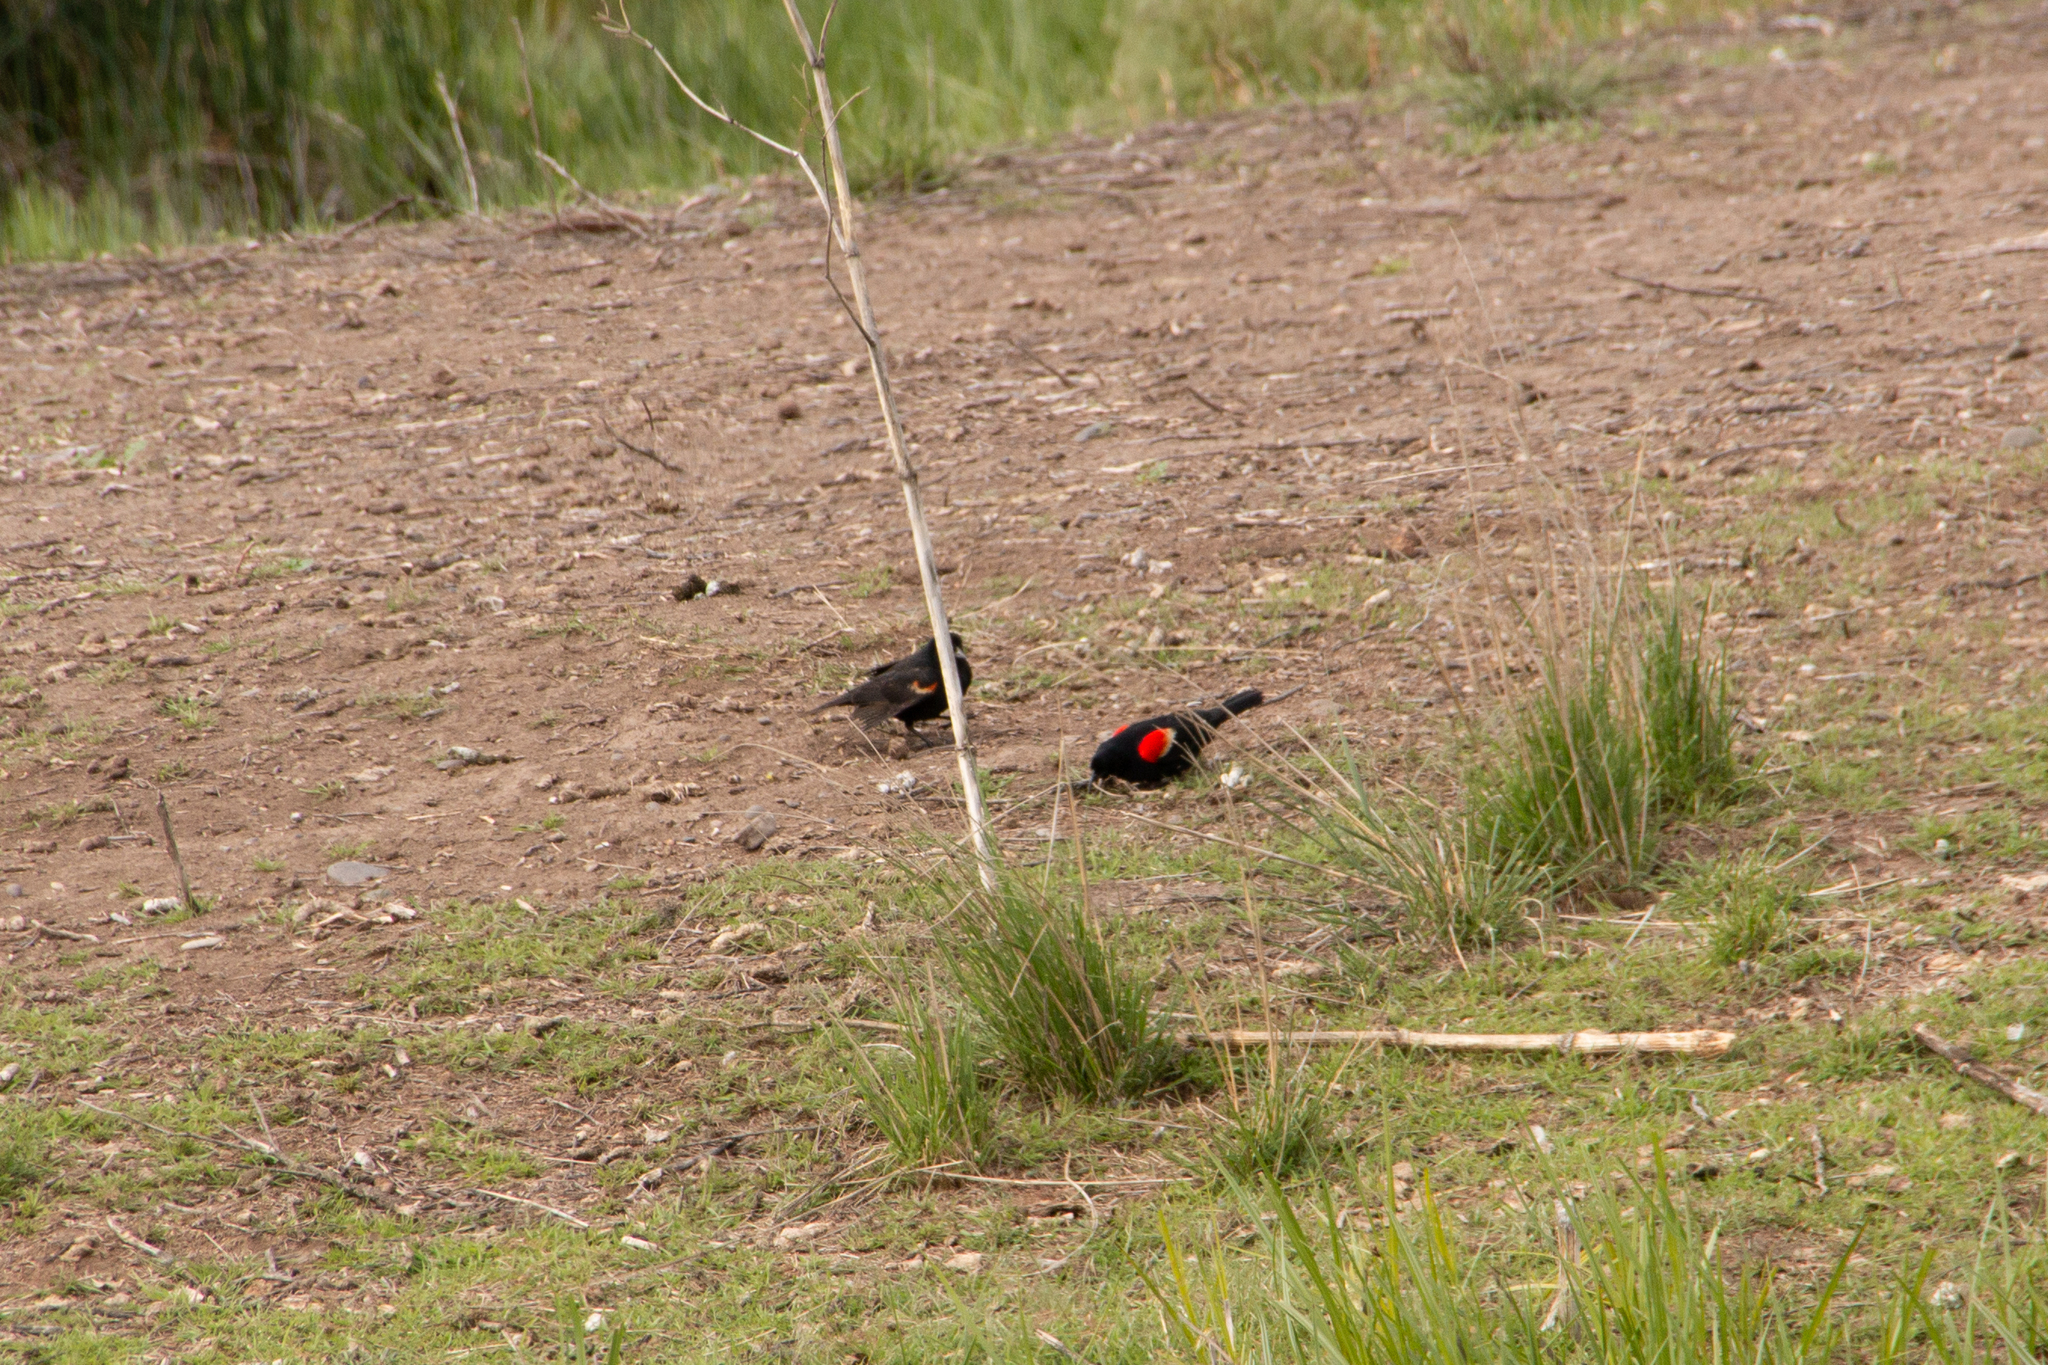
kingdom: Animalia
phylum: Chordata
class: Aves
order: Passeriformes
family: Icteridae
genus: Agelaius
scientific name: Agelaius phoeniceus
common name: Red-winged blackbird
